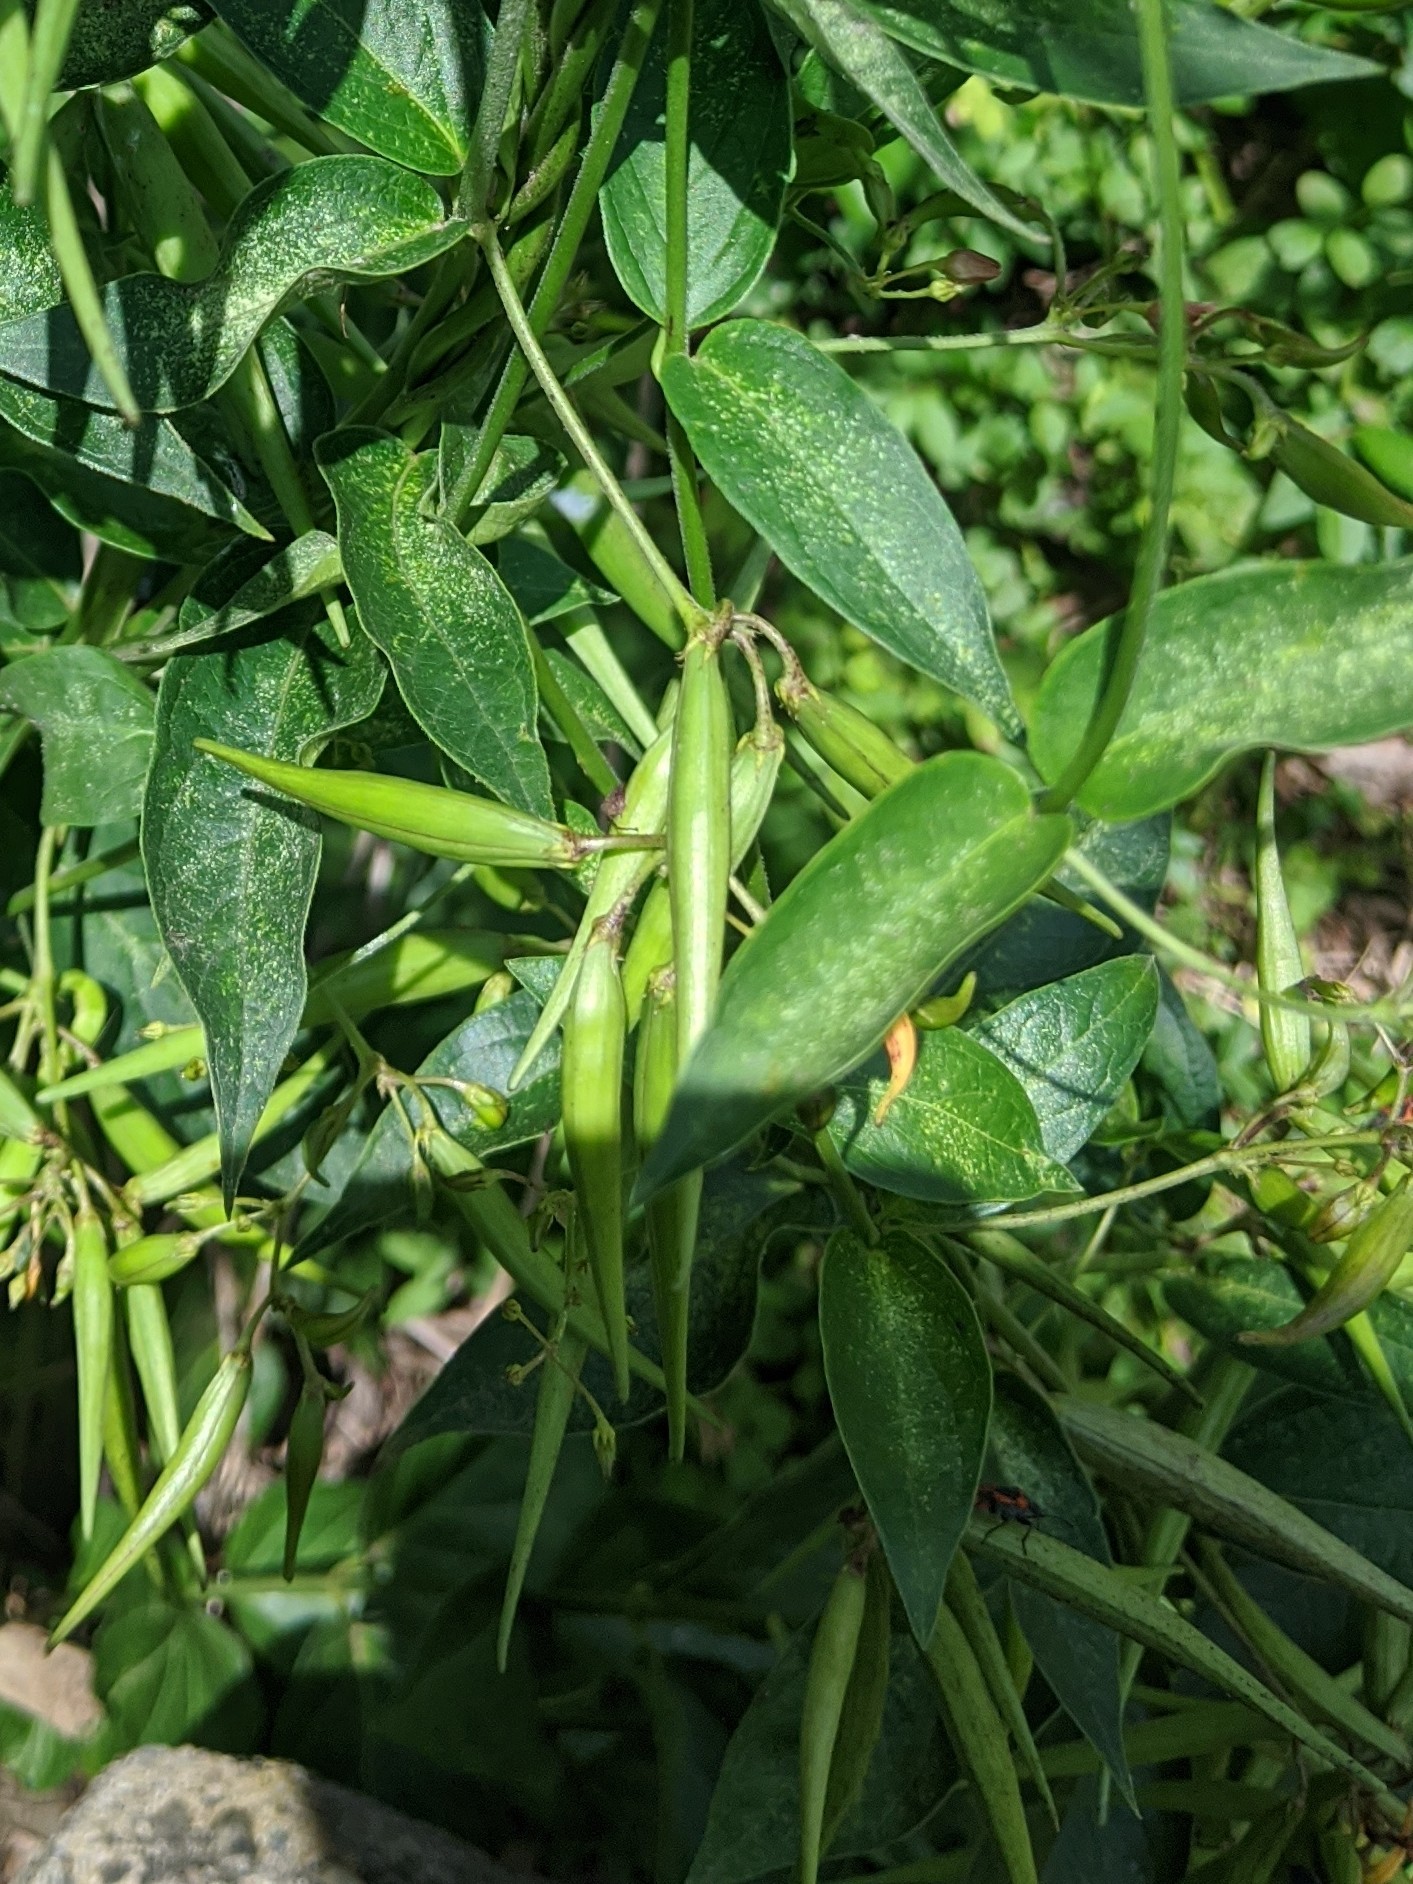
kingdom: Plantae
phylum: Tracheophyta
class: Magnoliopsida
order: Gentianales
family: Apocynaceae
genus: Vincetoxicum
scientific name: Vincetoxicum rossicum
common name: Dog-strangling vine
